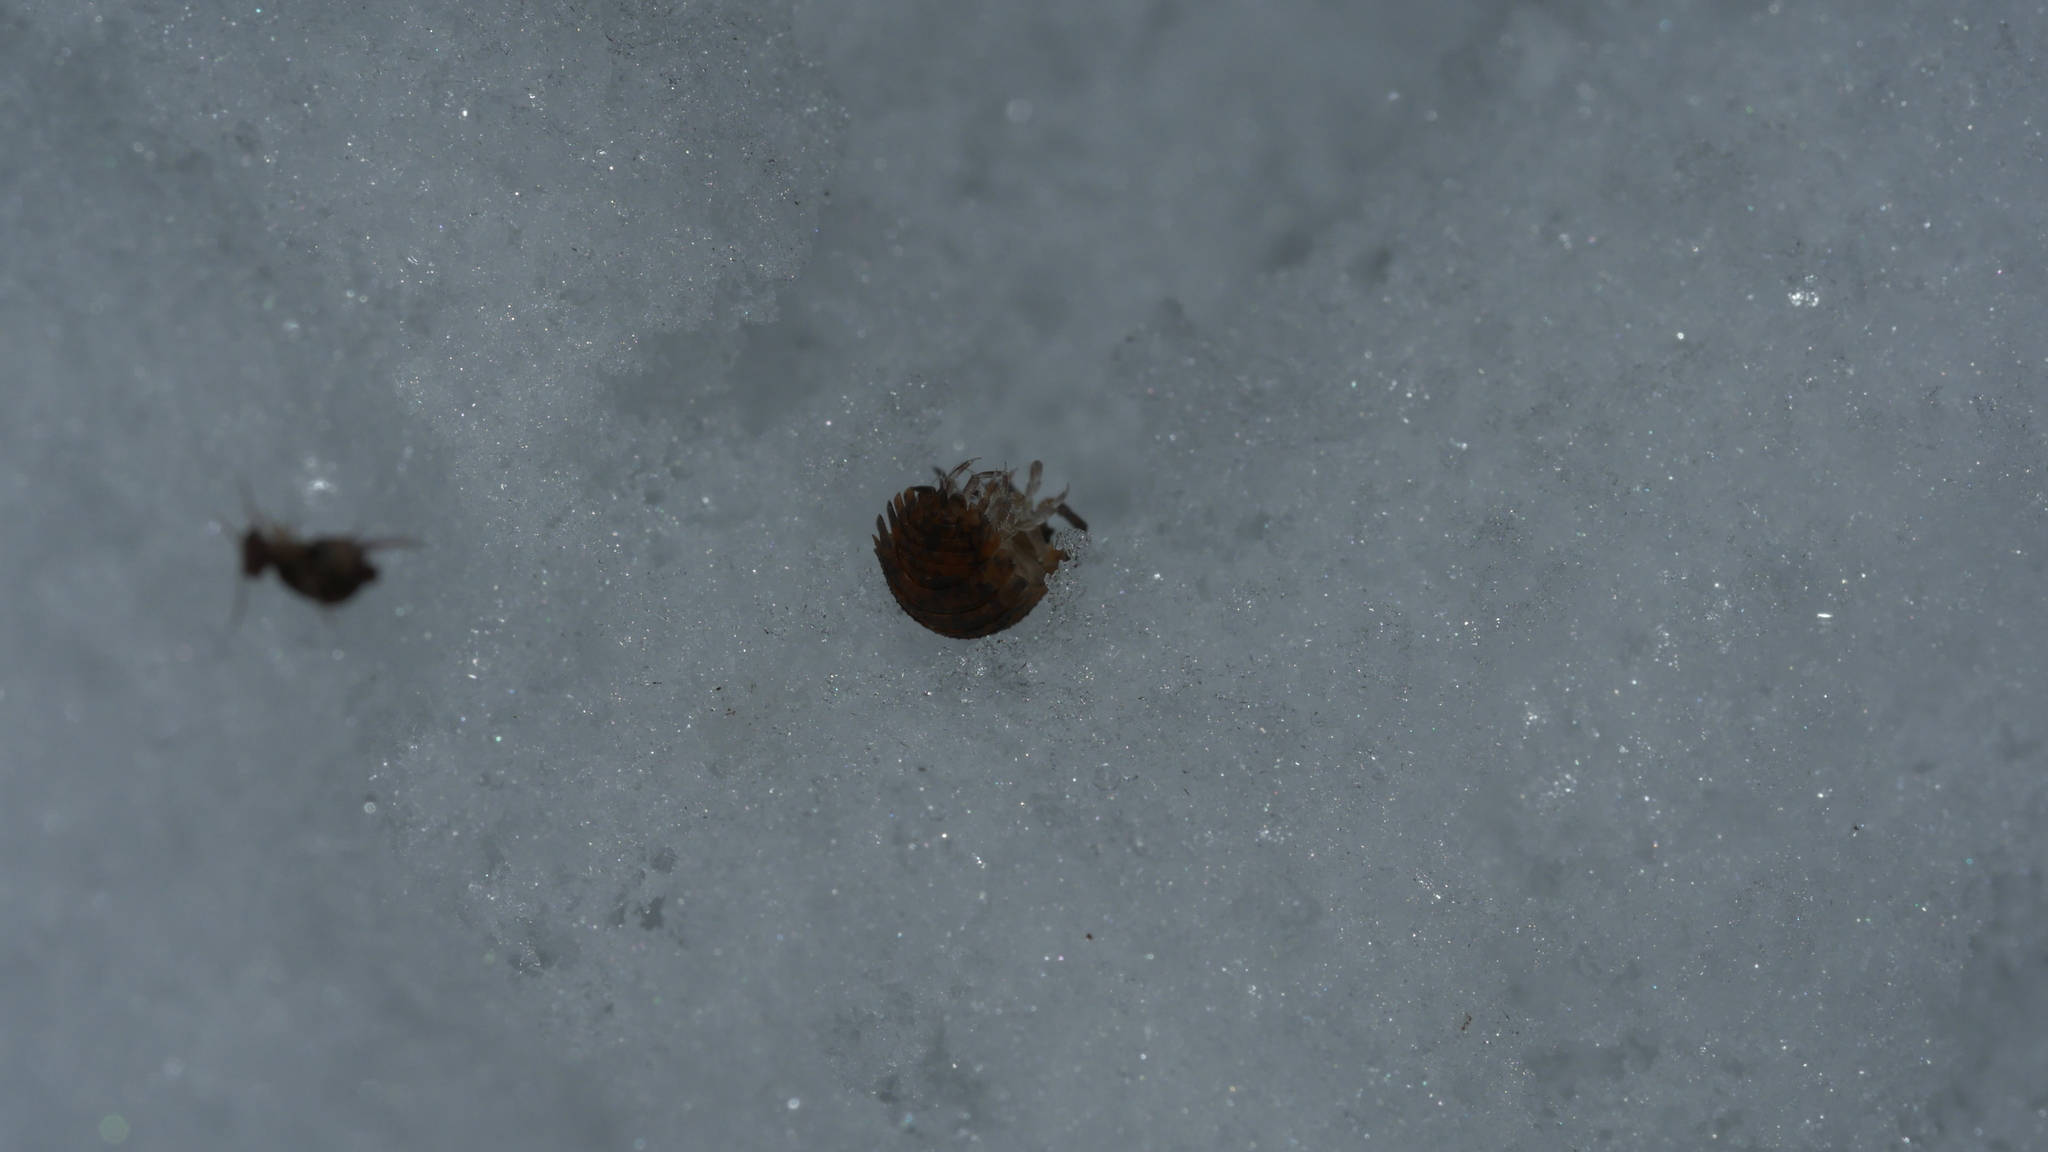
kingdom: Animalia
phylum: Arthropoda
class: Malacostraca
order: Isopoda
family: Porcellionidae
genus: Porcellio
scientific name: Porcellio scaber
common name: Common rough woodlouse
